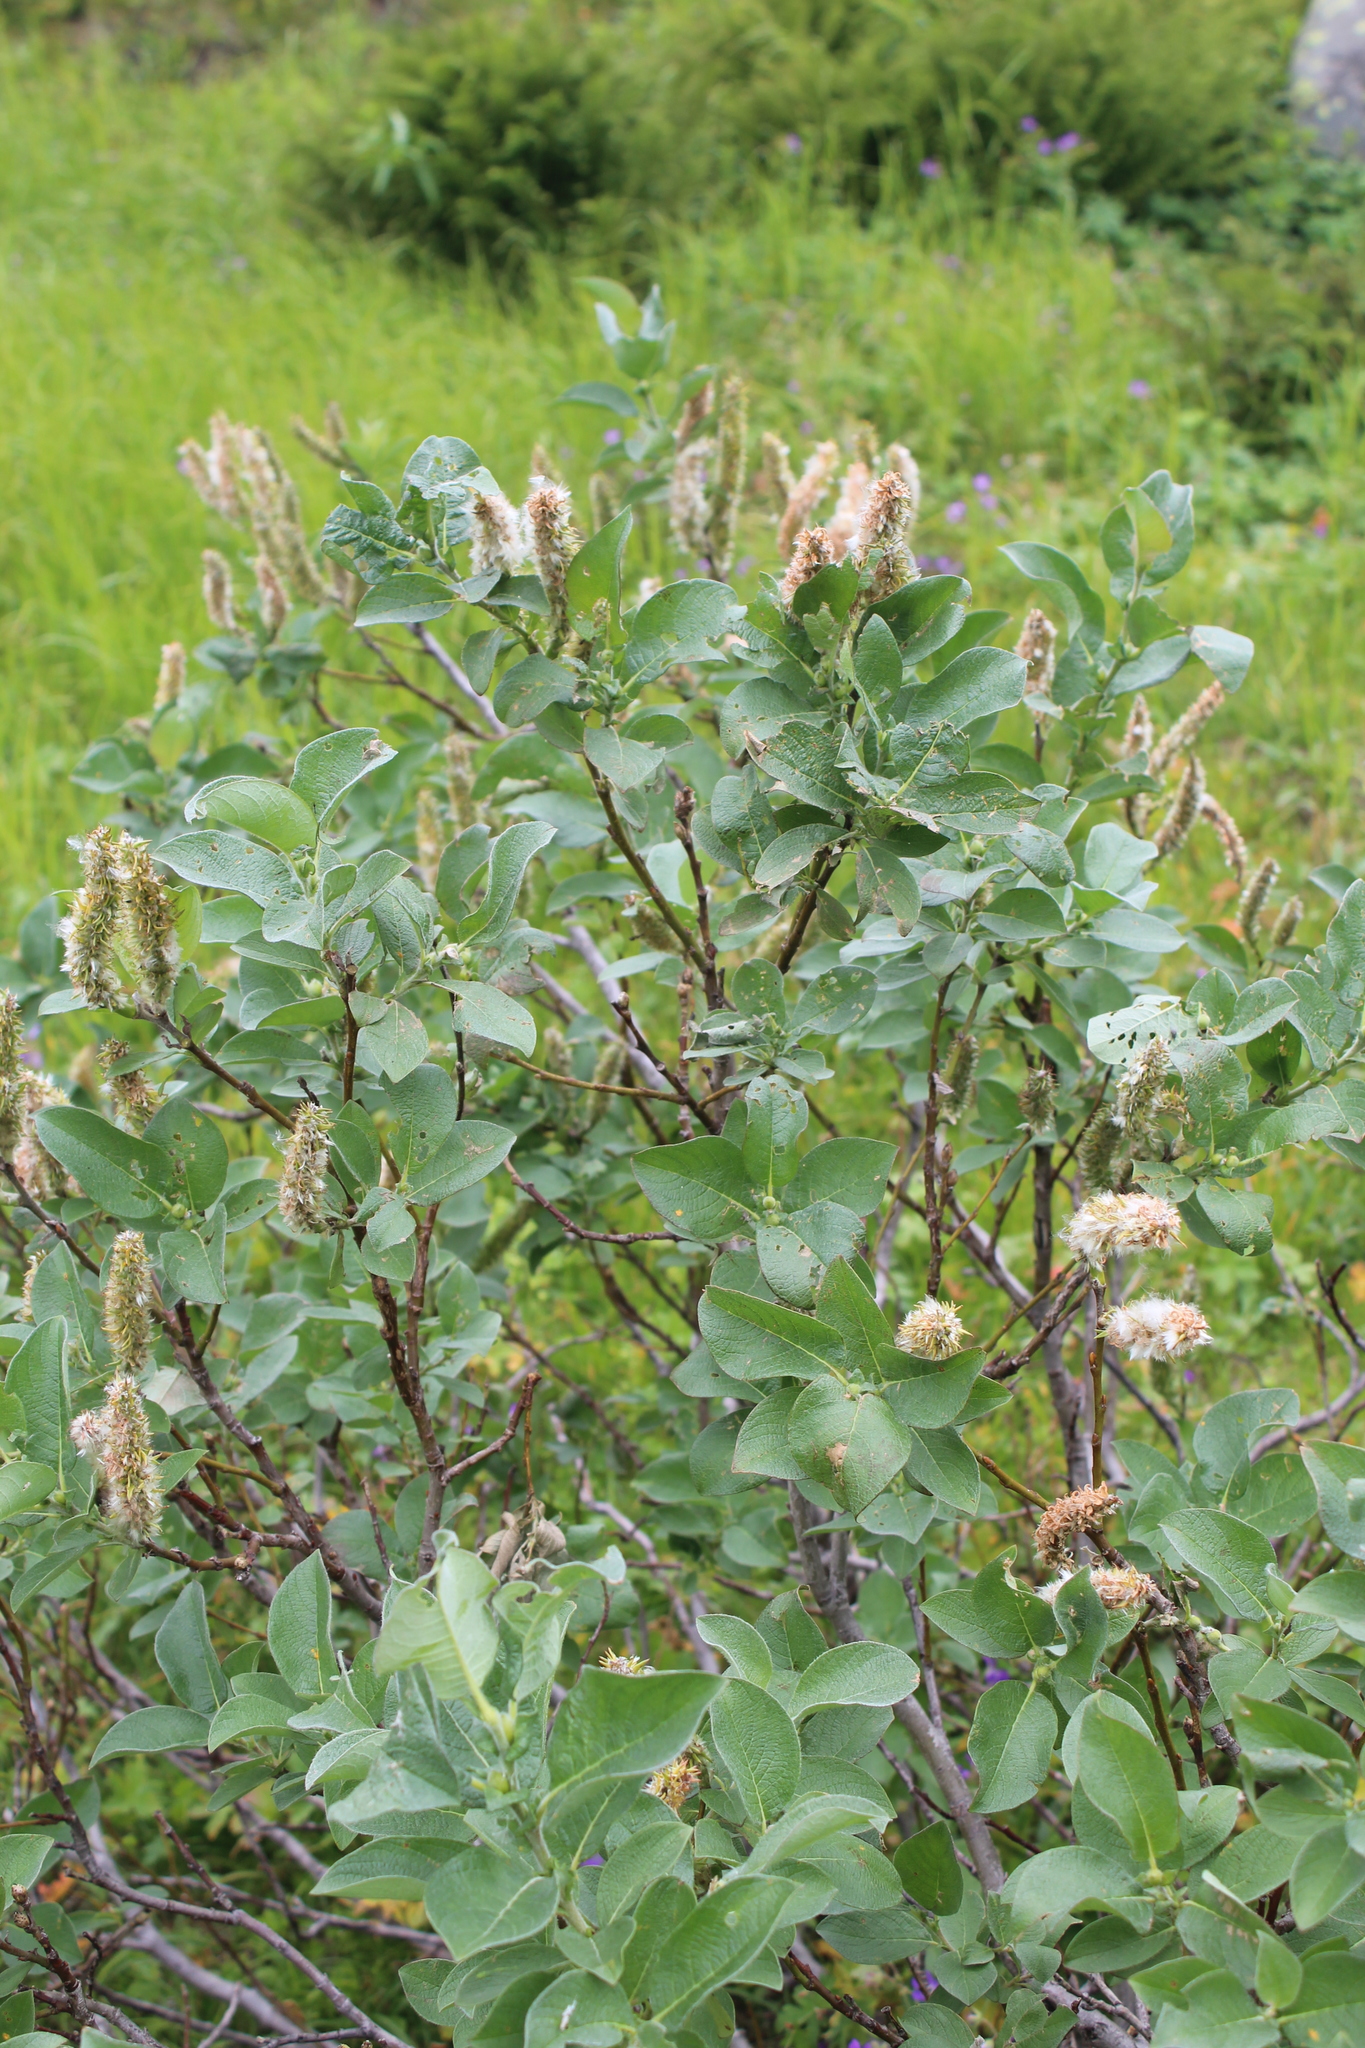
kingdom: Plantae
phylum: Tracheophyta
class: Magnoliopsida
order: Malpighiales
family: Salicaceae
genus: Salix
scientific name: Salix lanata
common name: Woolly willow
